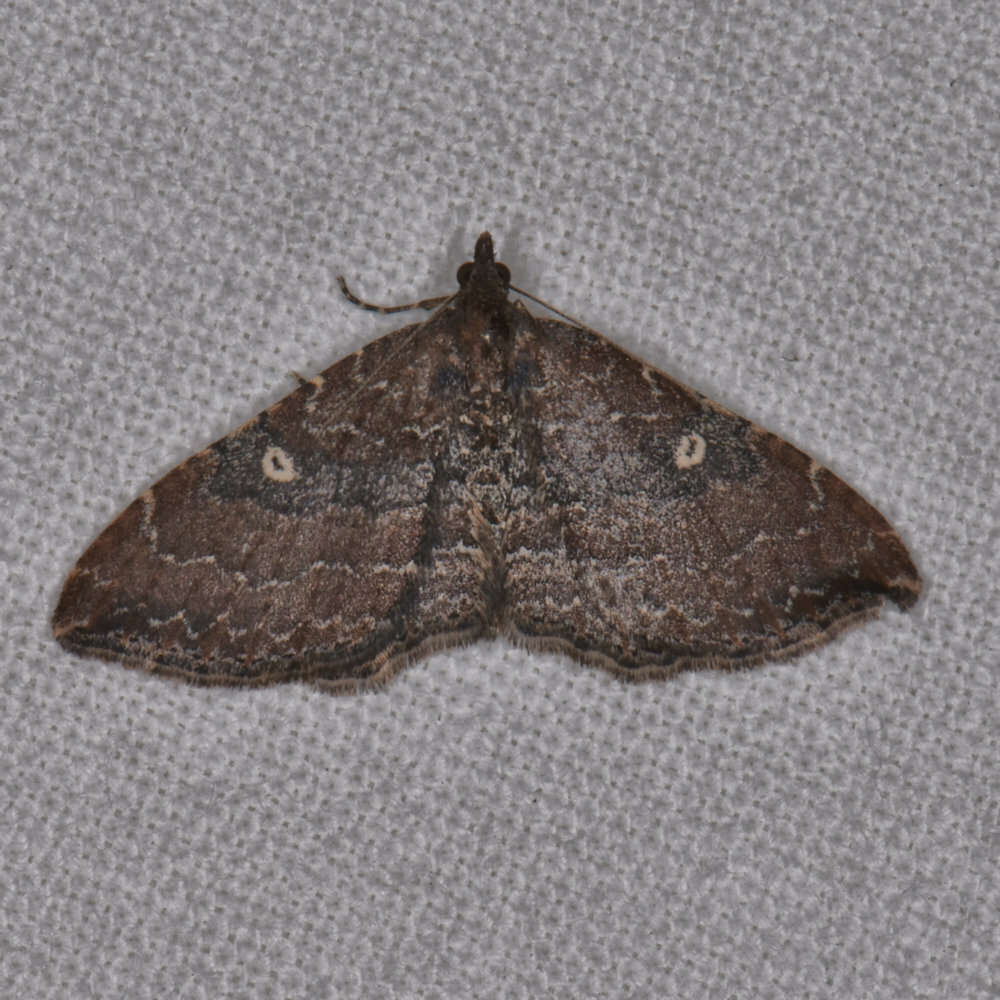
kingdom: Animalia
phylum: Arthropoda
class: Insecta
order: Lepidoptera
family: Geometridae
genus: Orthonama
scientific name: Orthonama obstipata
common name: The gem
